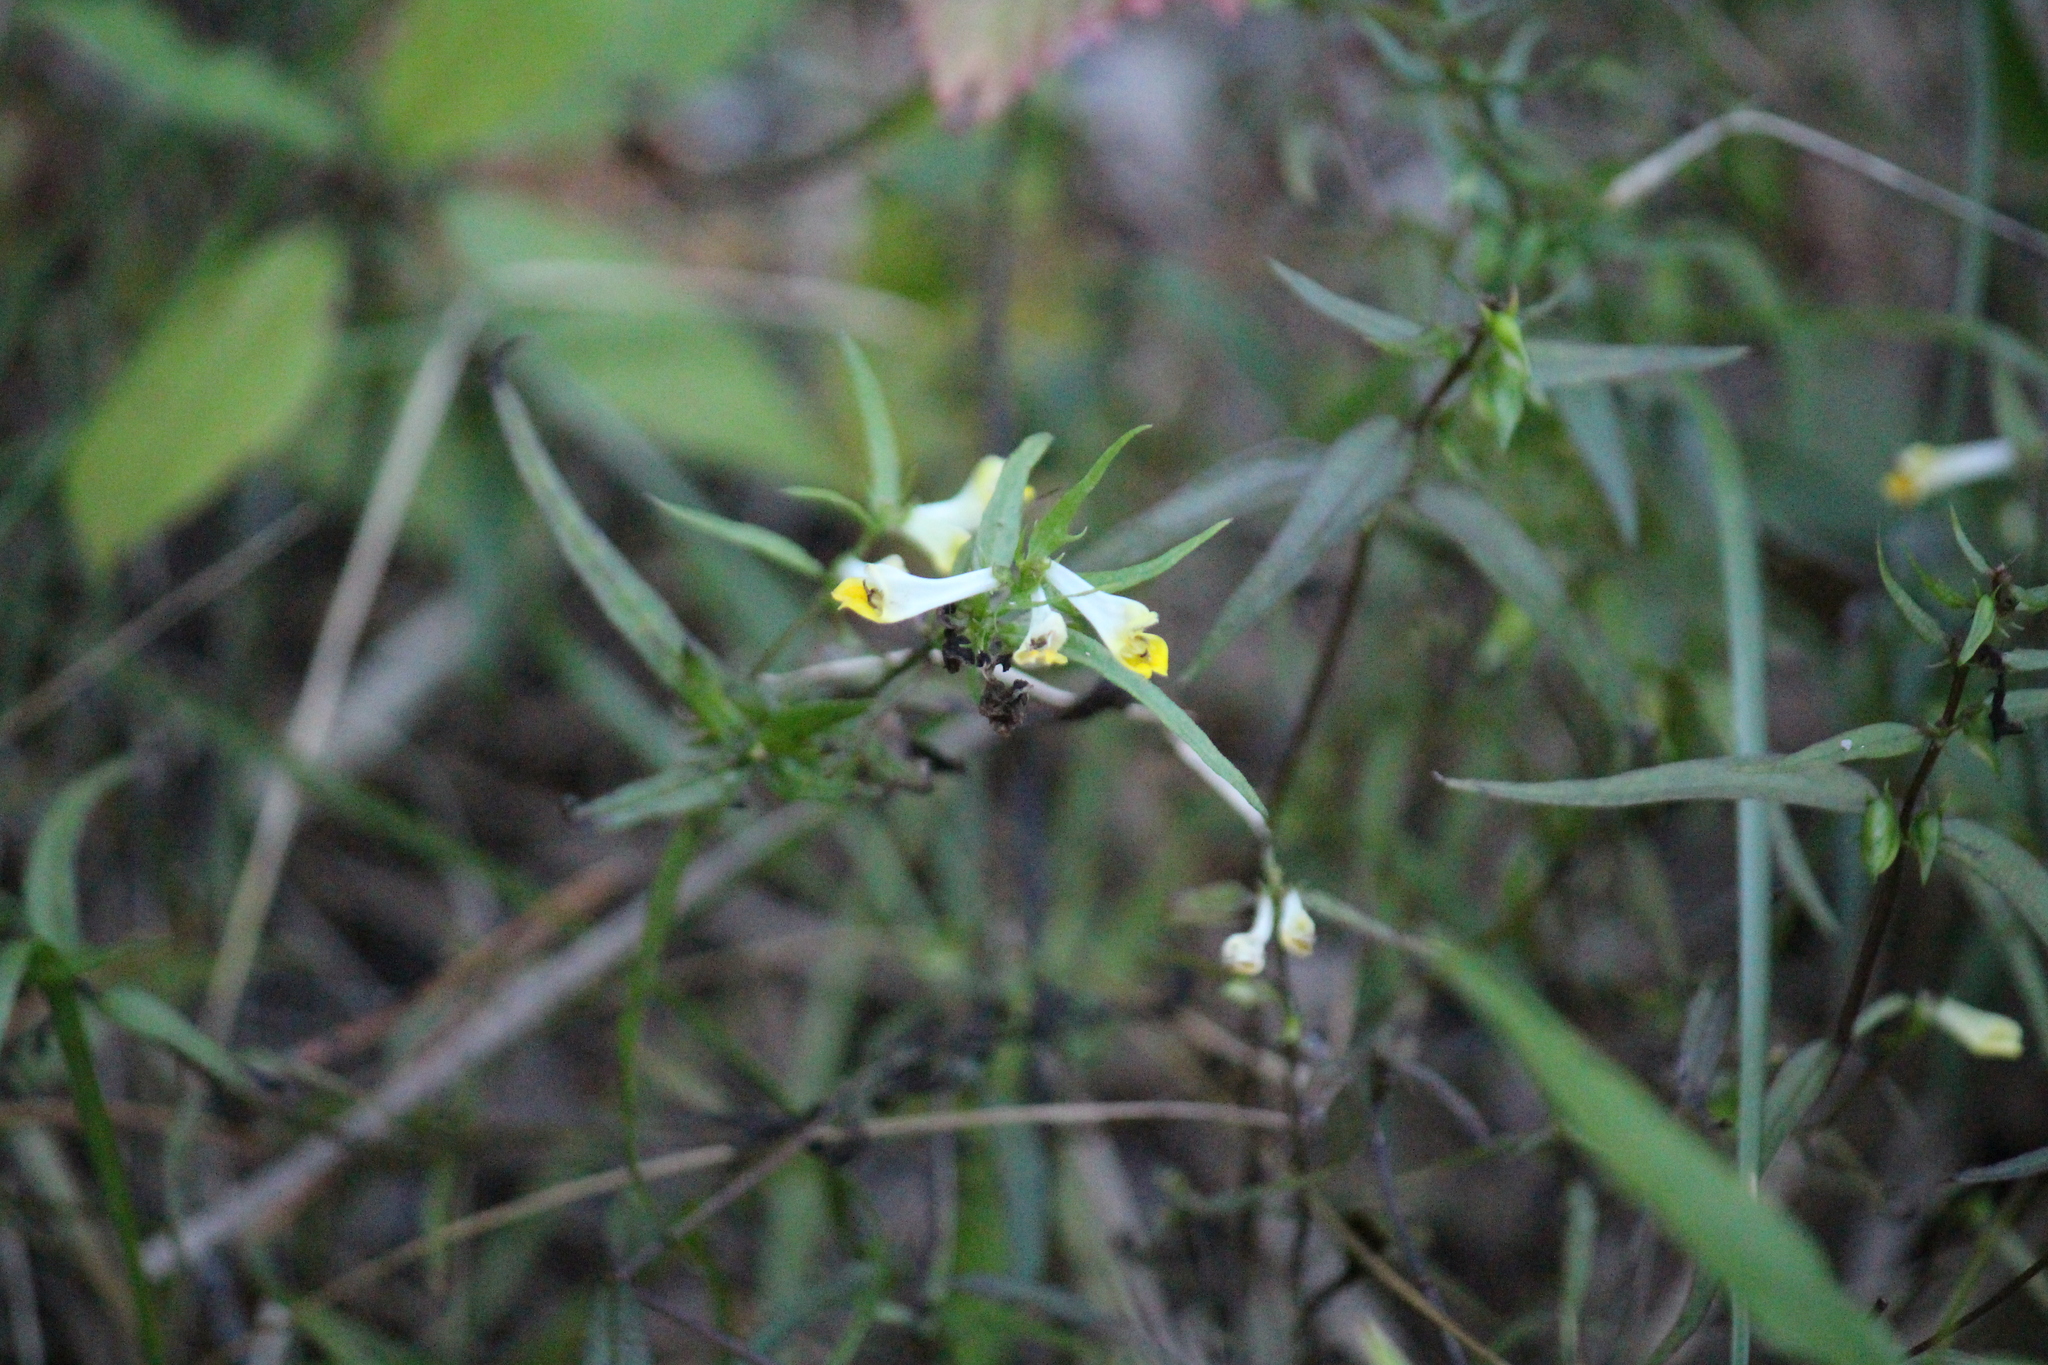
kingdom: Plantae
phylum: Tracheophyta
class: Magnoliopsida
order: Lamiales
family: Orobanchaceae
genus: Melampyrum
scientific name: Melampyrum pratense
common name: Common cow-wheat
